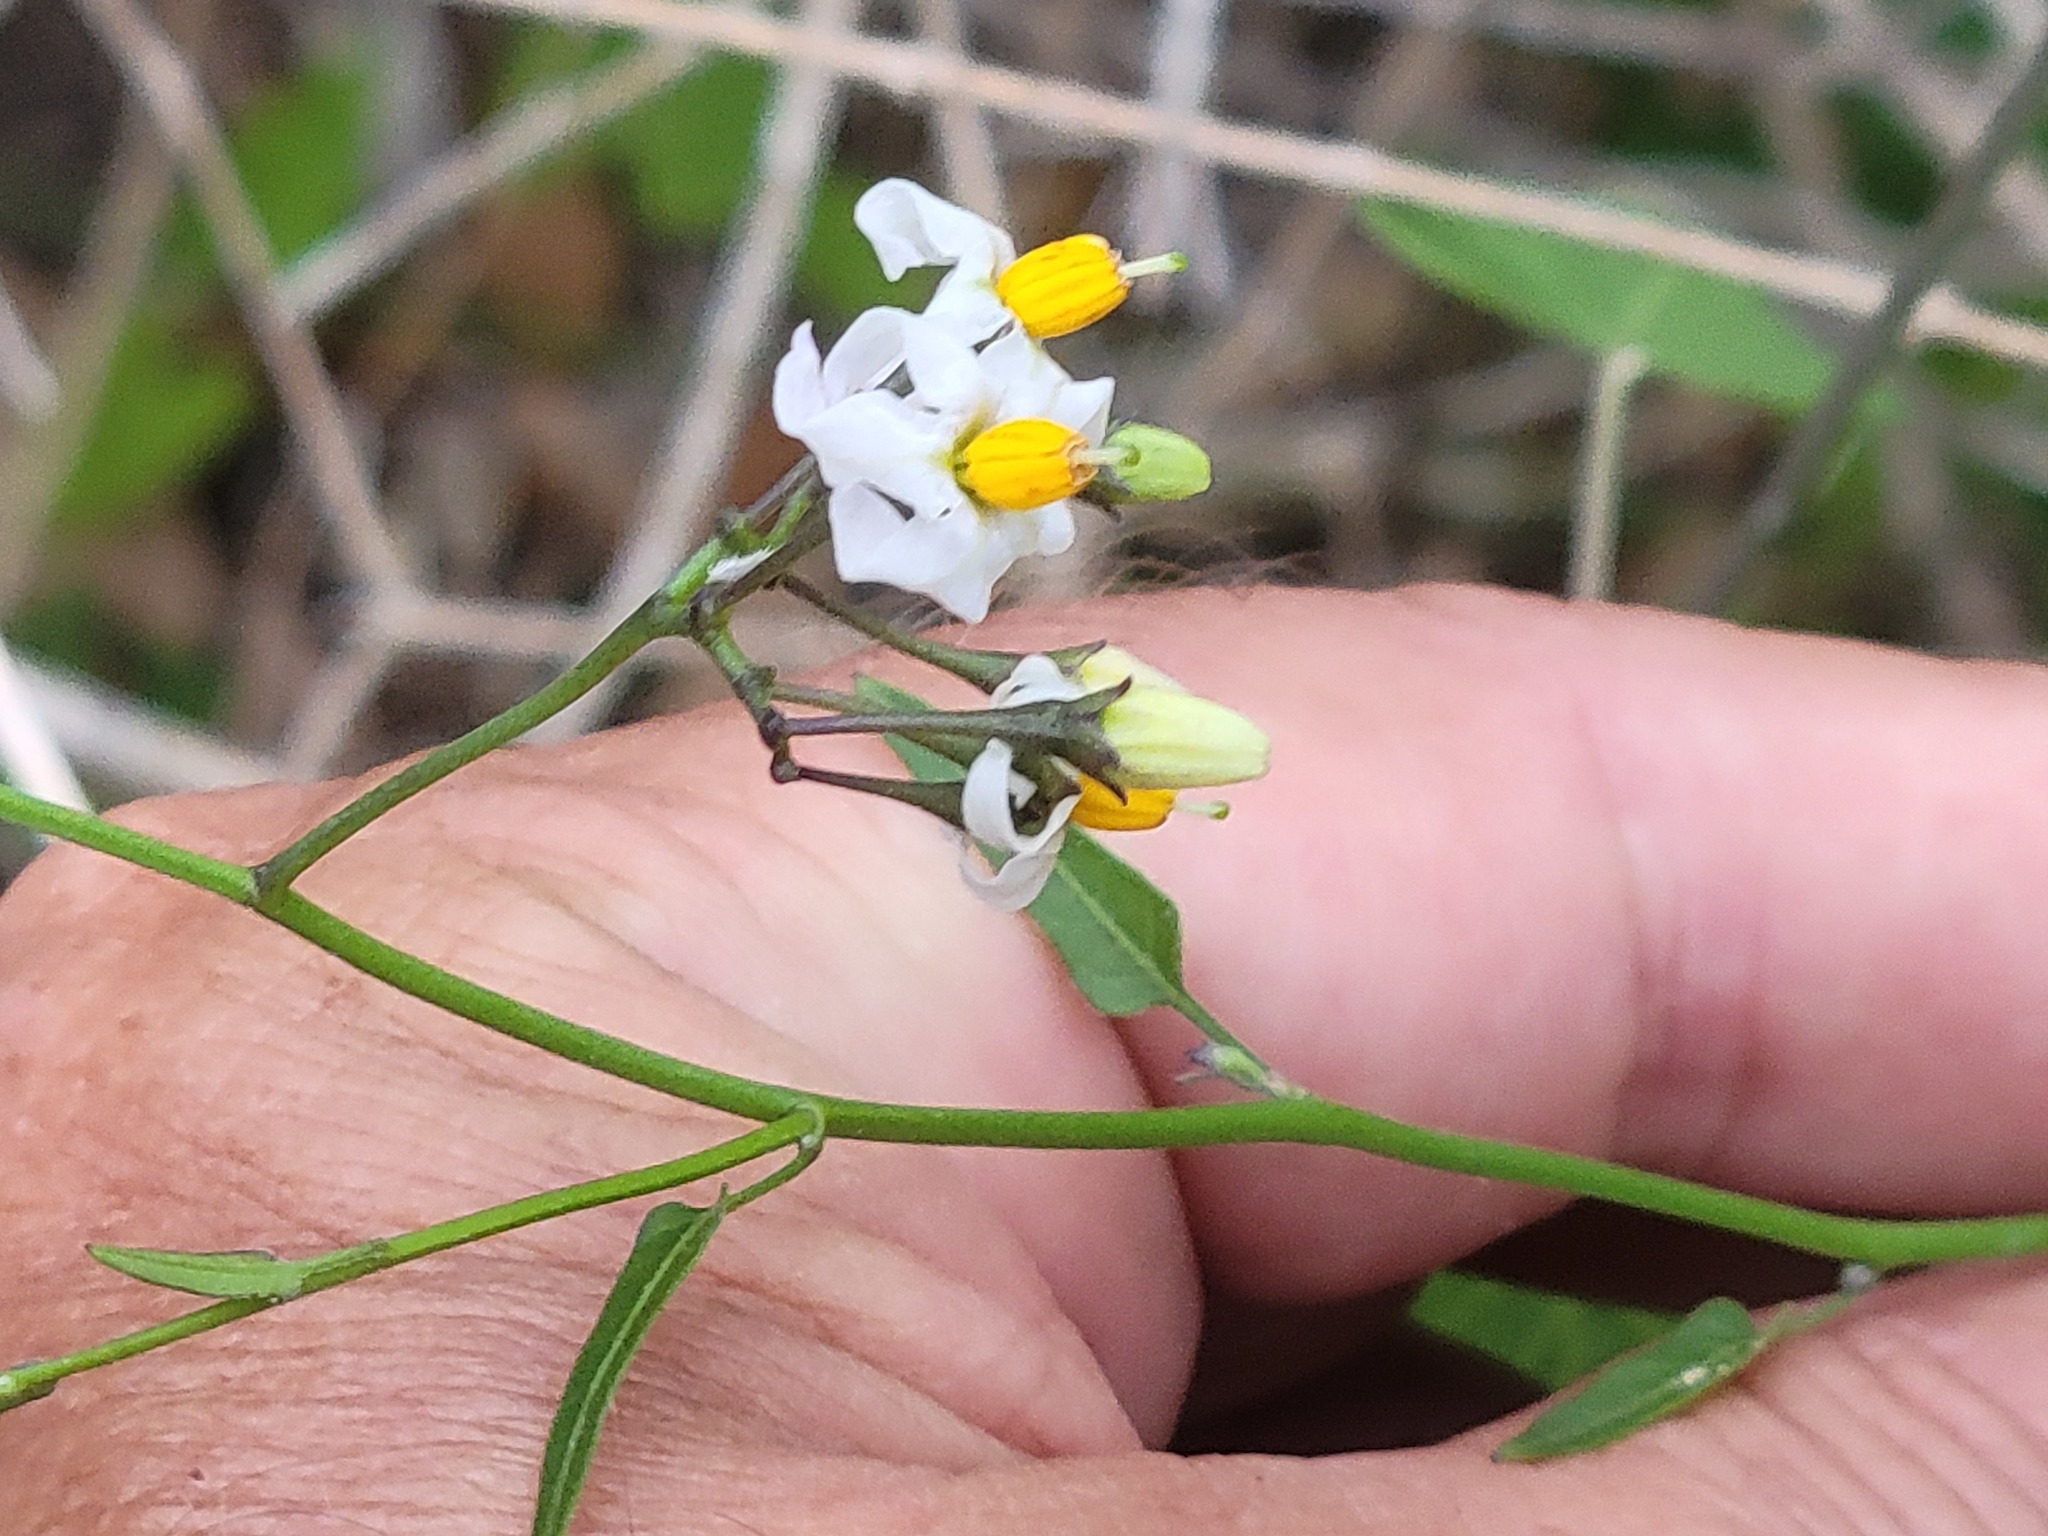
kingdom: Plantae
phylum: Tracheophyta
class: Magnoliopsida
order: Solanales
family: Solanaceae
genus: Solanum
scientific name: Solanum triquetrum
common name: Texas nightshade
